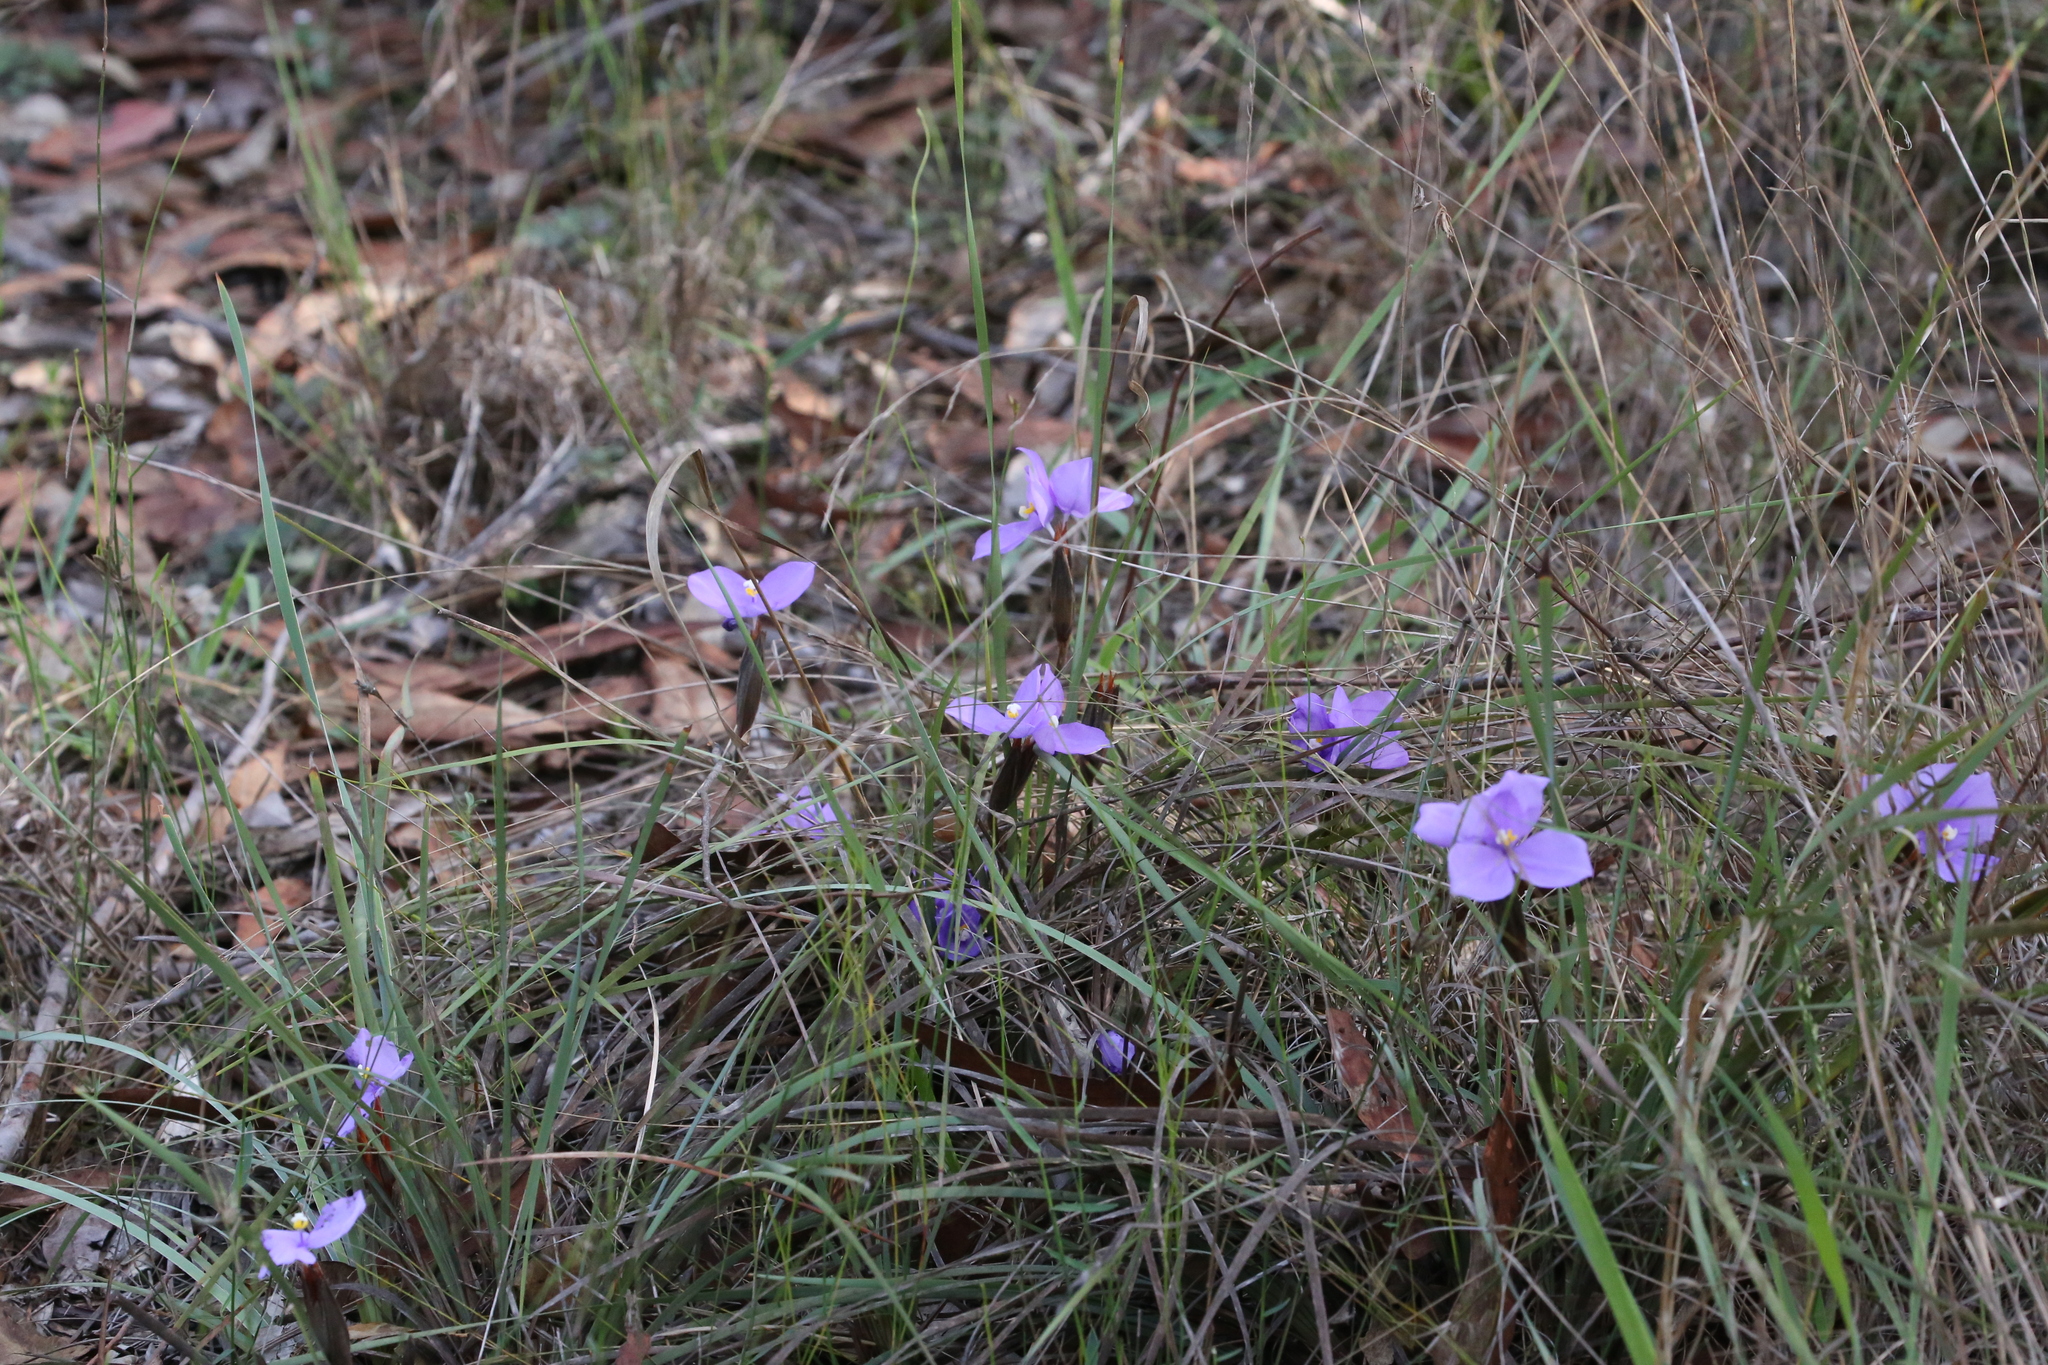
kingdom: Plantae
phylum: Tracheophyta
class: Liliopsida
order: Asparagales
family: Iridaceae
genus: Patersonia
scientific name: Patersonia sericea
